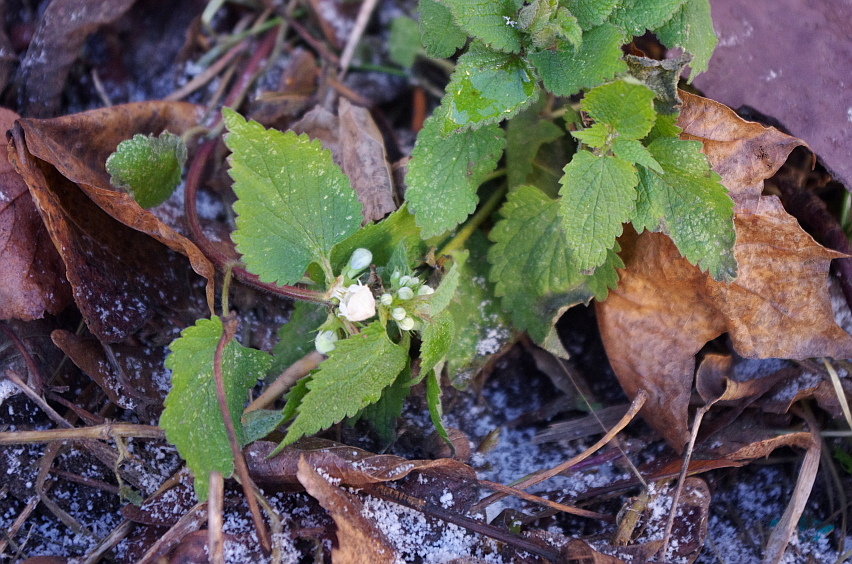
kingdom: Plantae
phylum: Tracheophyta
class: Magnoliopsida
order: Lamiales
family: Lamiaceae
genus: Lamium
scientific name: Lamium album
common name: White dead-nettle
